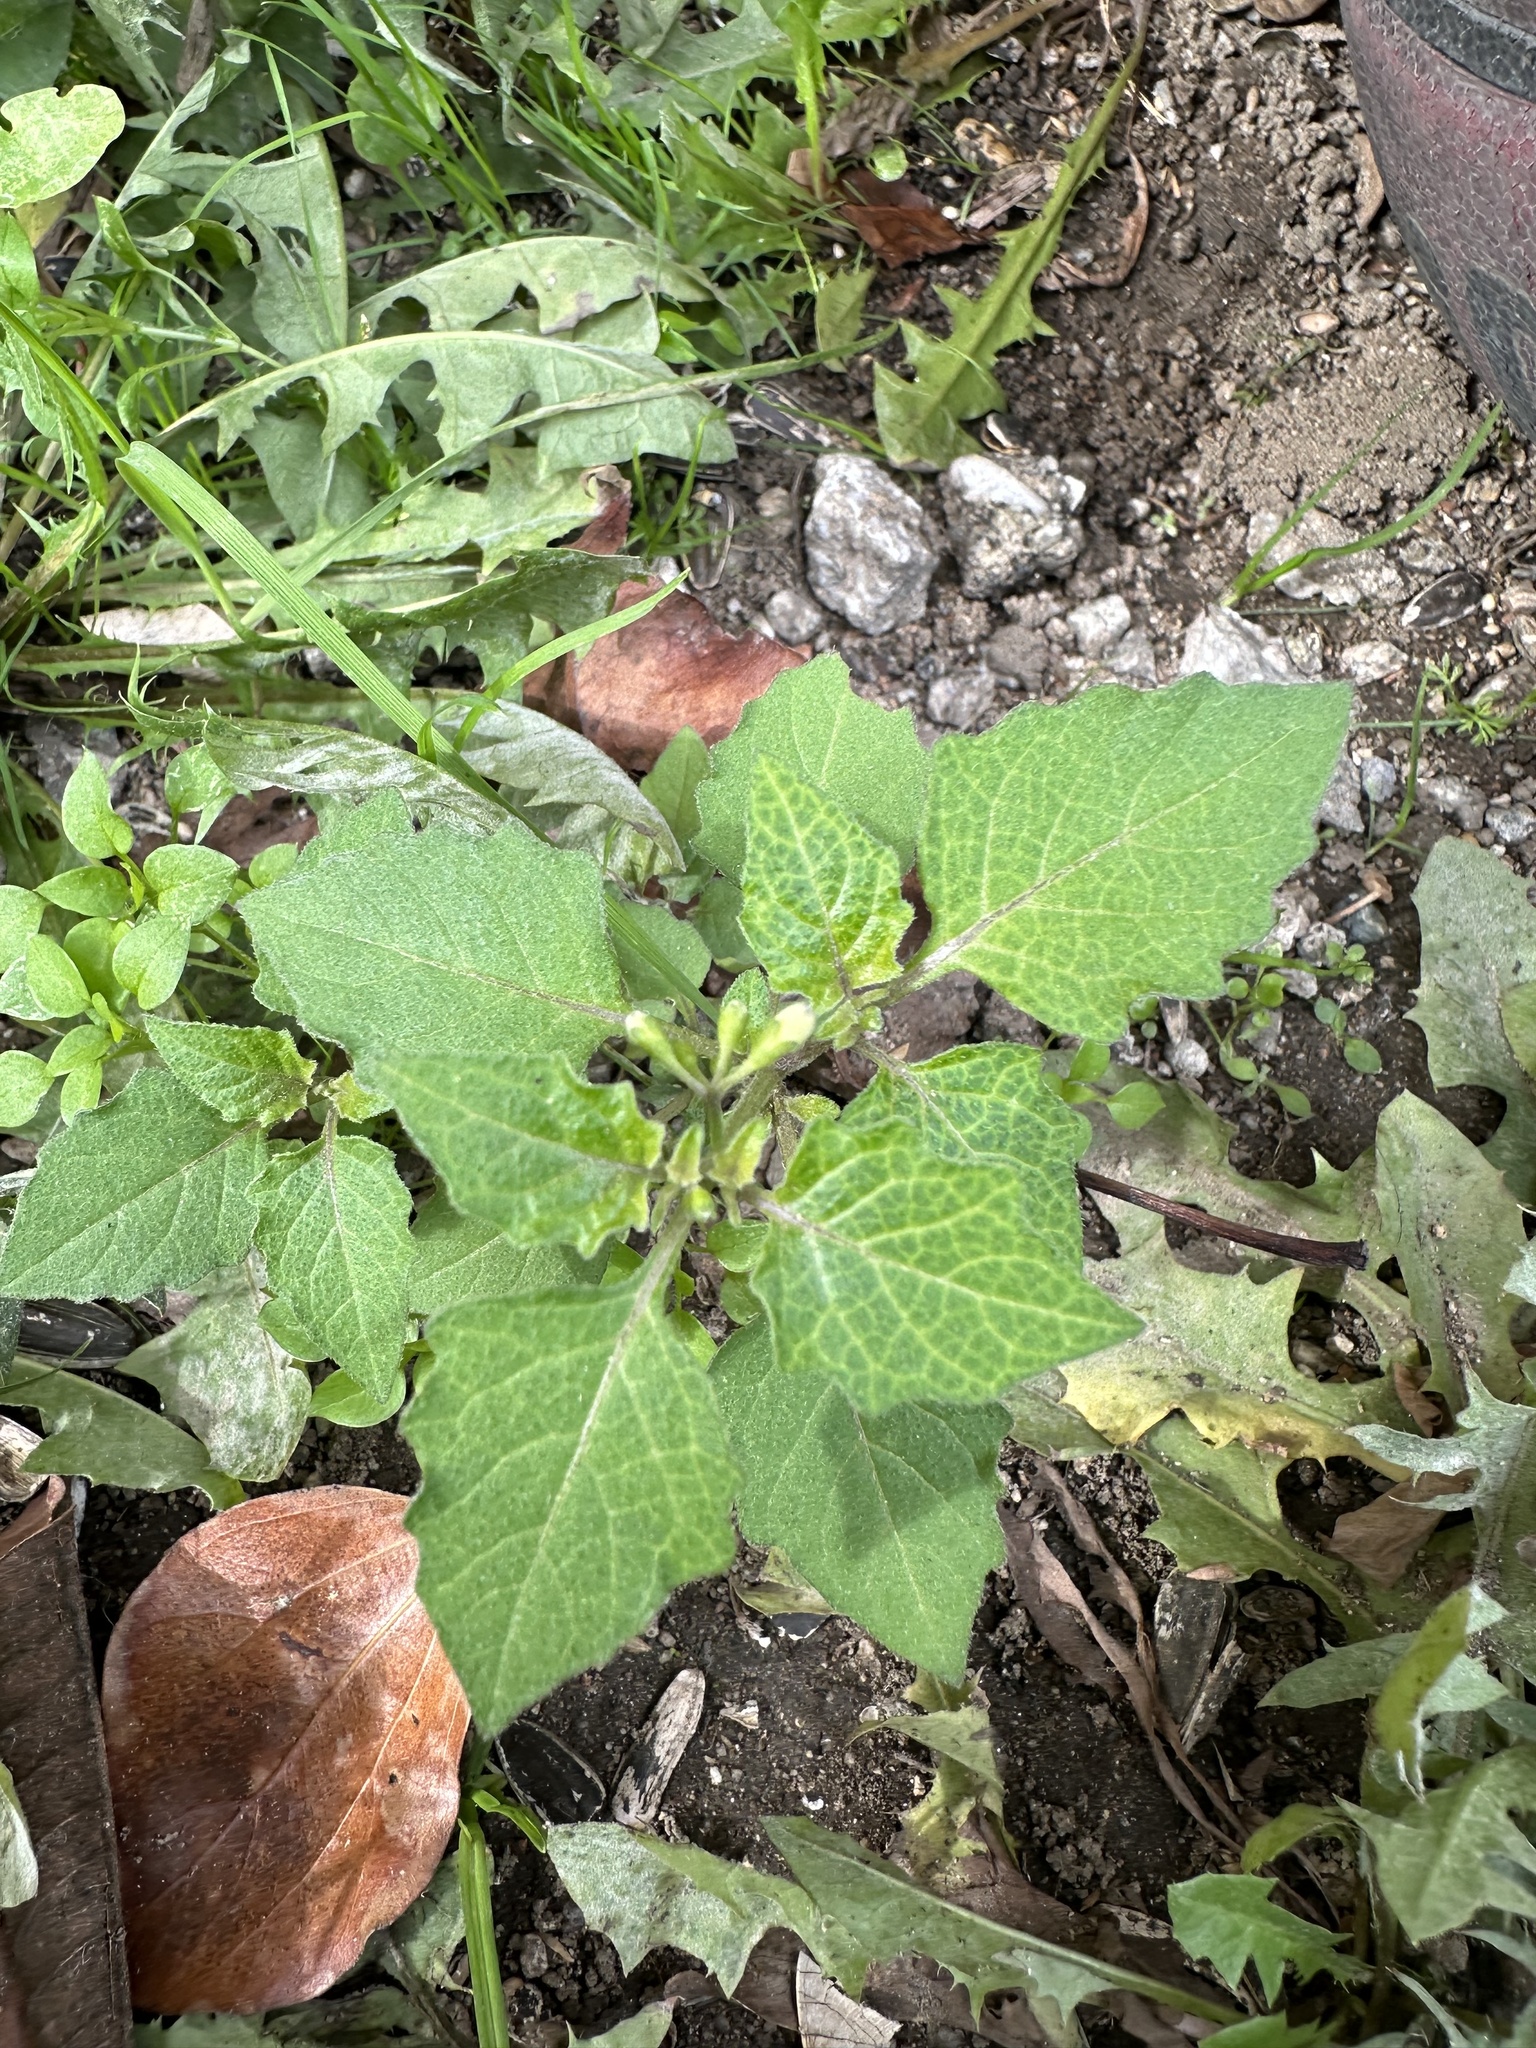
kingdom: Plantae
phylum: Tracheophyta
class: Magnoliopsida
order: Solanales
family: Solanaceae
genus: Solanum
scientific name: Solanum nigrum
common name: Black nightshade
